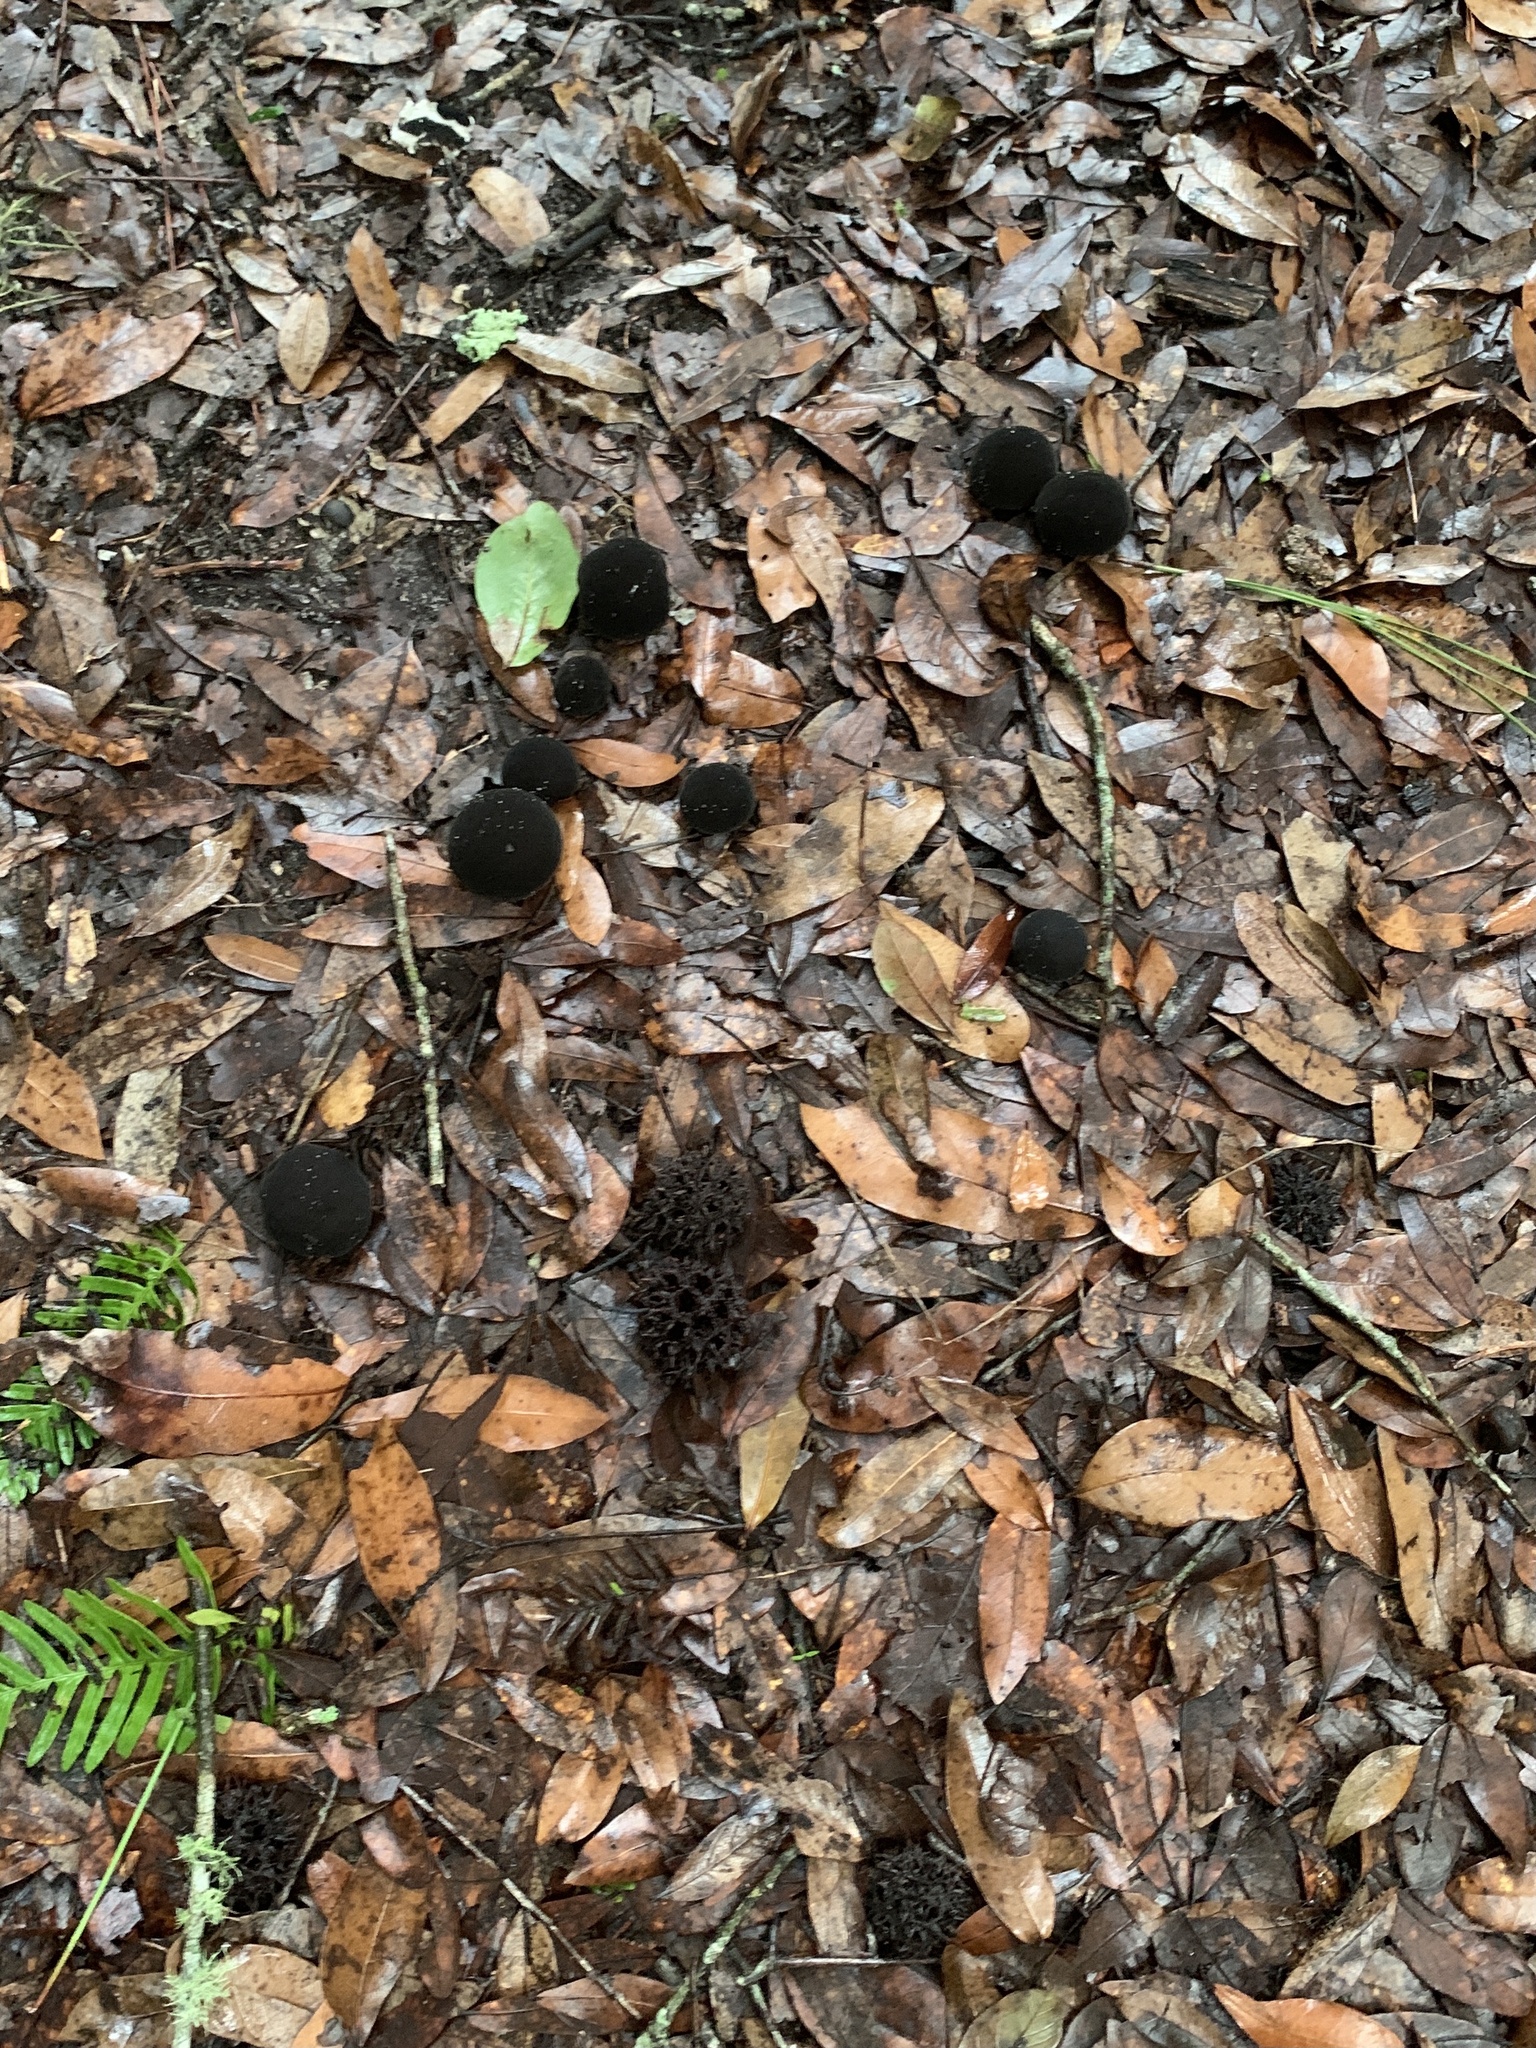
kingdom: Fungi
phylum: Basidiomycota
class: Agaricomycetes
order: Agaricales
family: Lycoperdaceae
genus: Lycoperdon
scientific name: Lycoperdon umbrinum
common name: Umber-brown puffball
